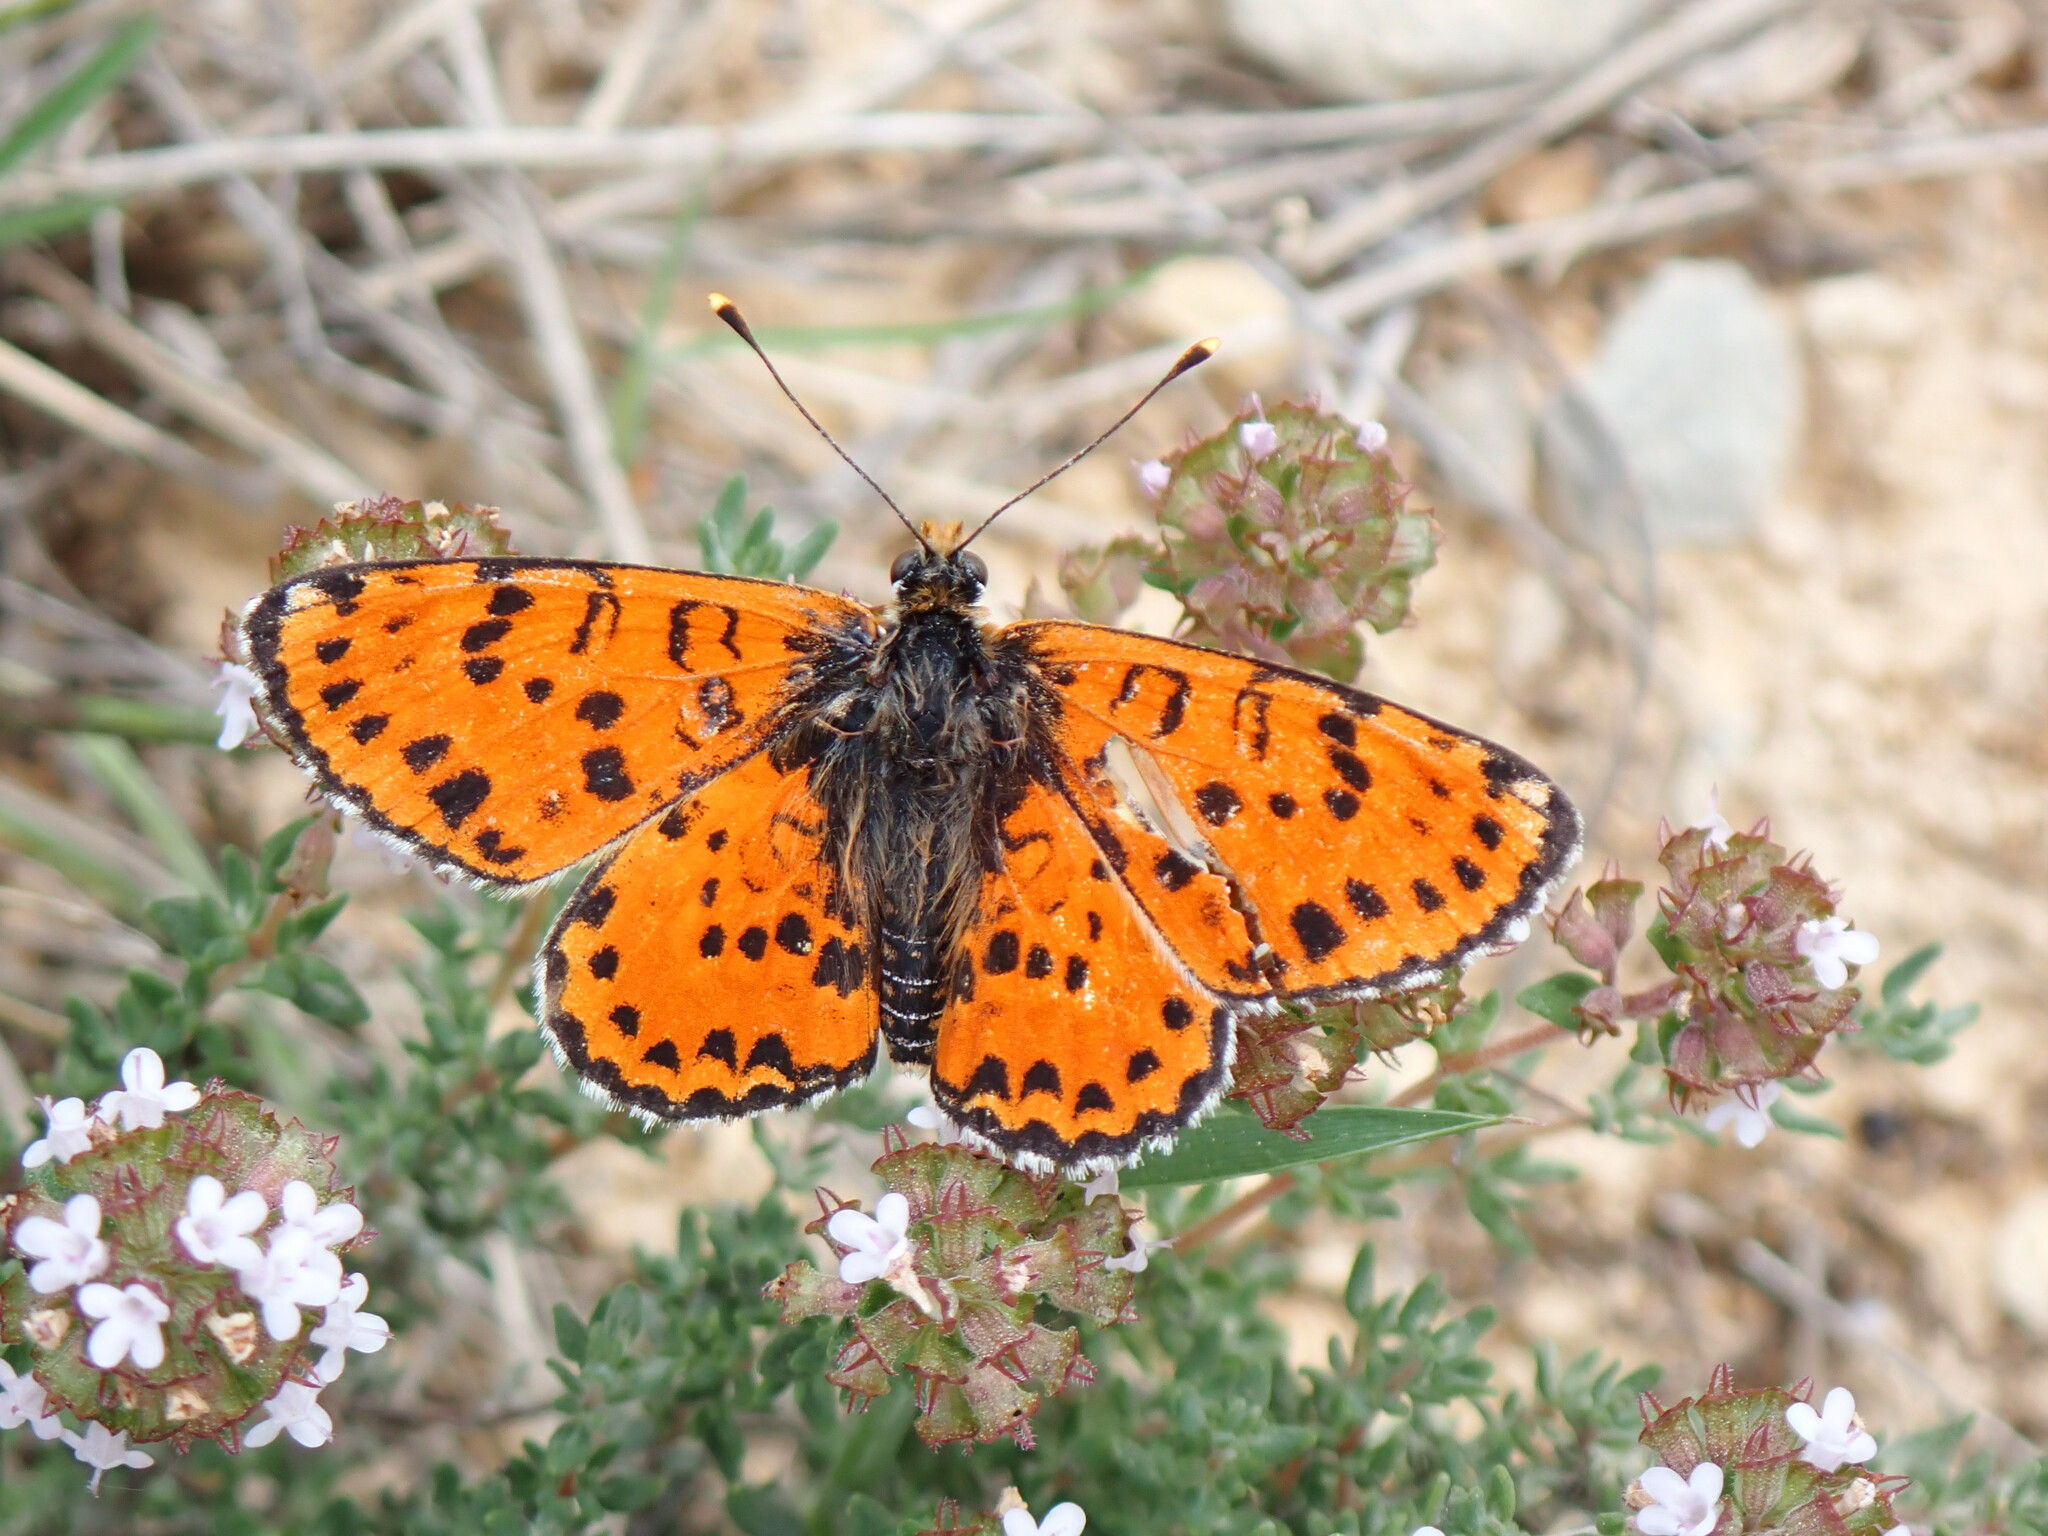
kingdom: Animalia
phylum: Arthropoda
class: Insecta
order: Lepidoptera
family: Nymphalidae
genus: Melitaea
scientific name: Melitaea didyma
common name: Spotted fritillary
